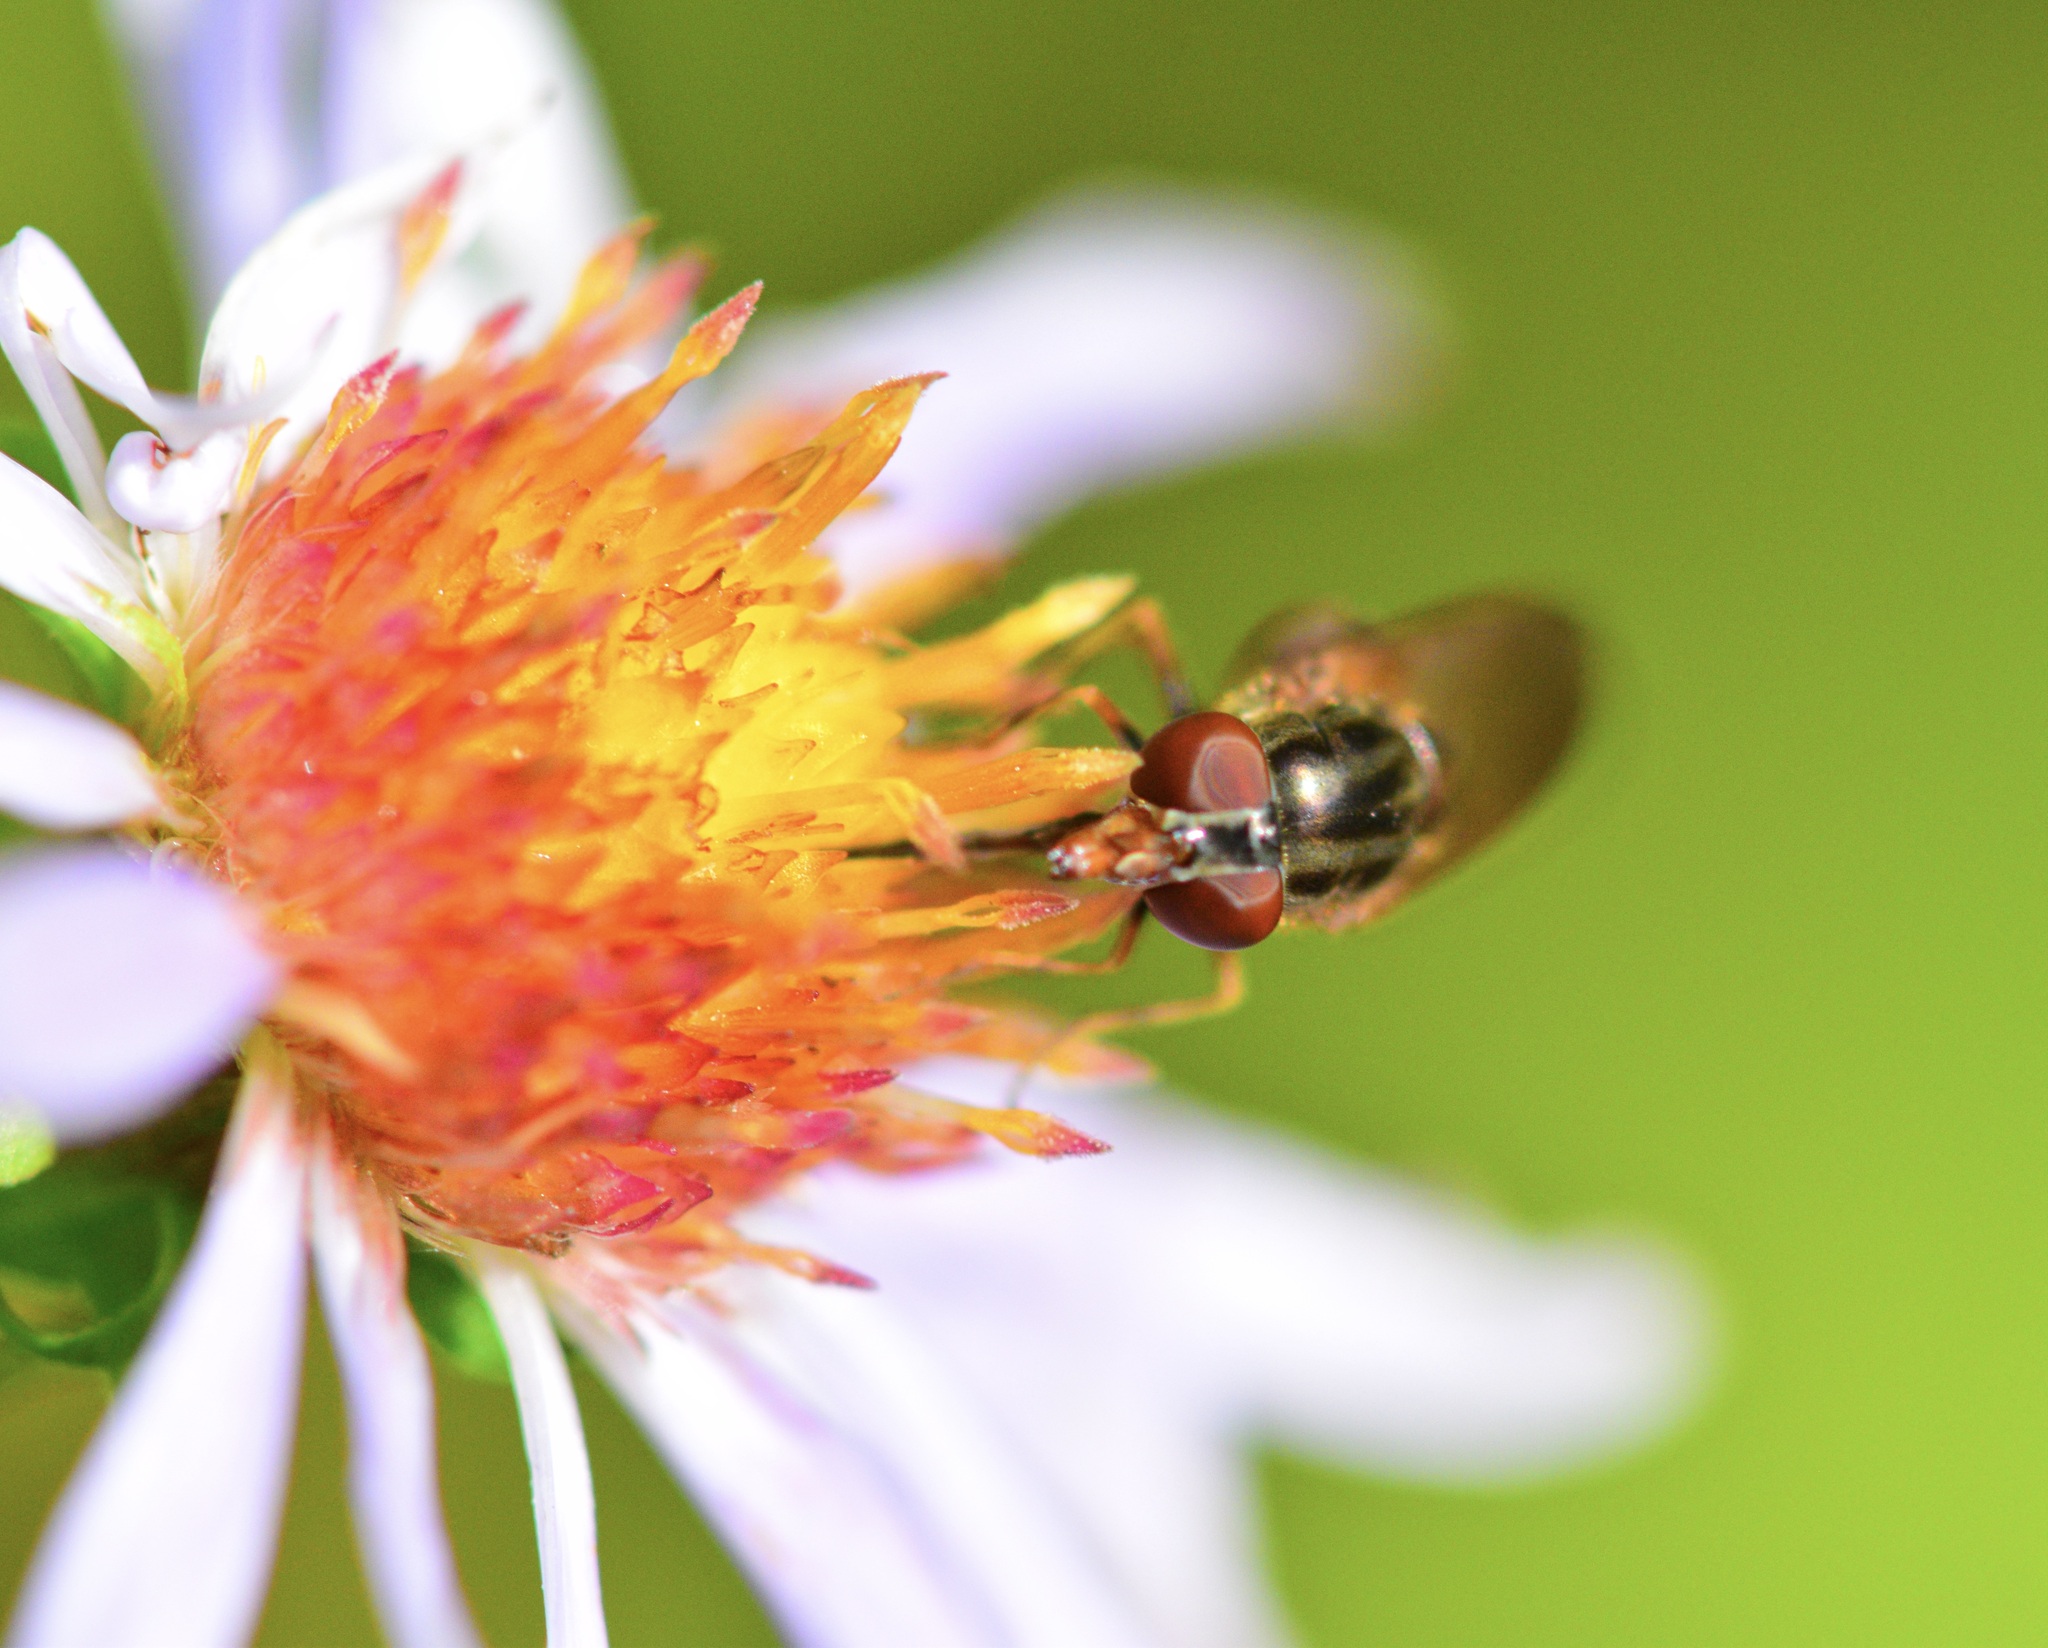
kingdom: Animalia
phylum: Arthropoda
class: Insecta
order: Diptera
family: Syrphidae
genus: Rhingia
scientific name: Rhingia nasica
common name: American snout fly
